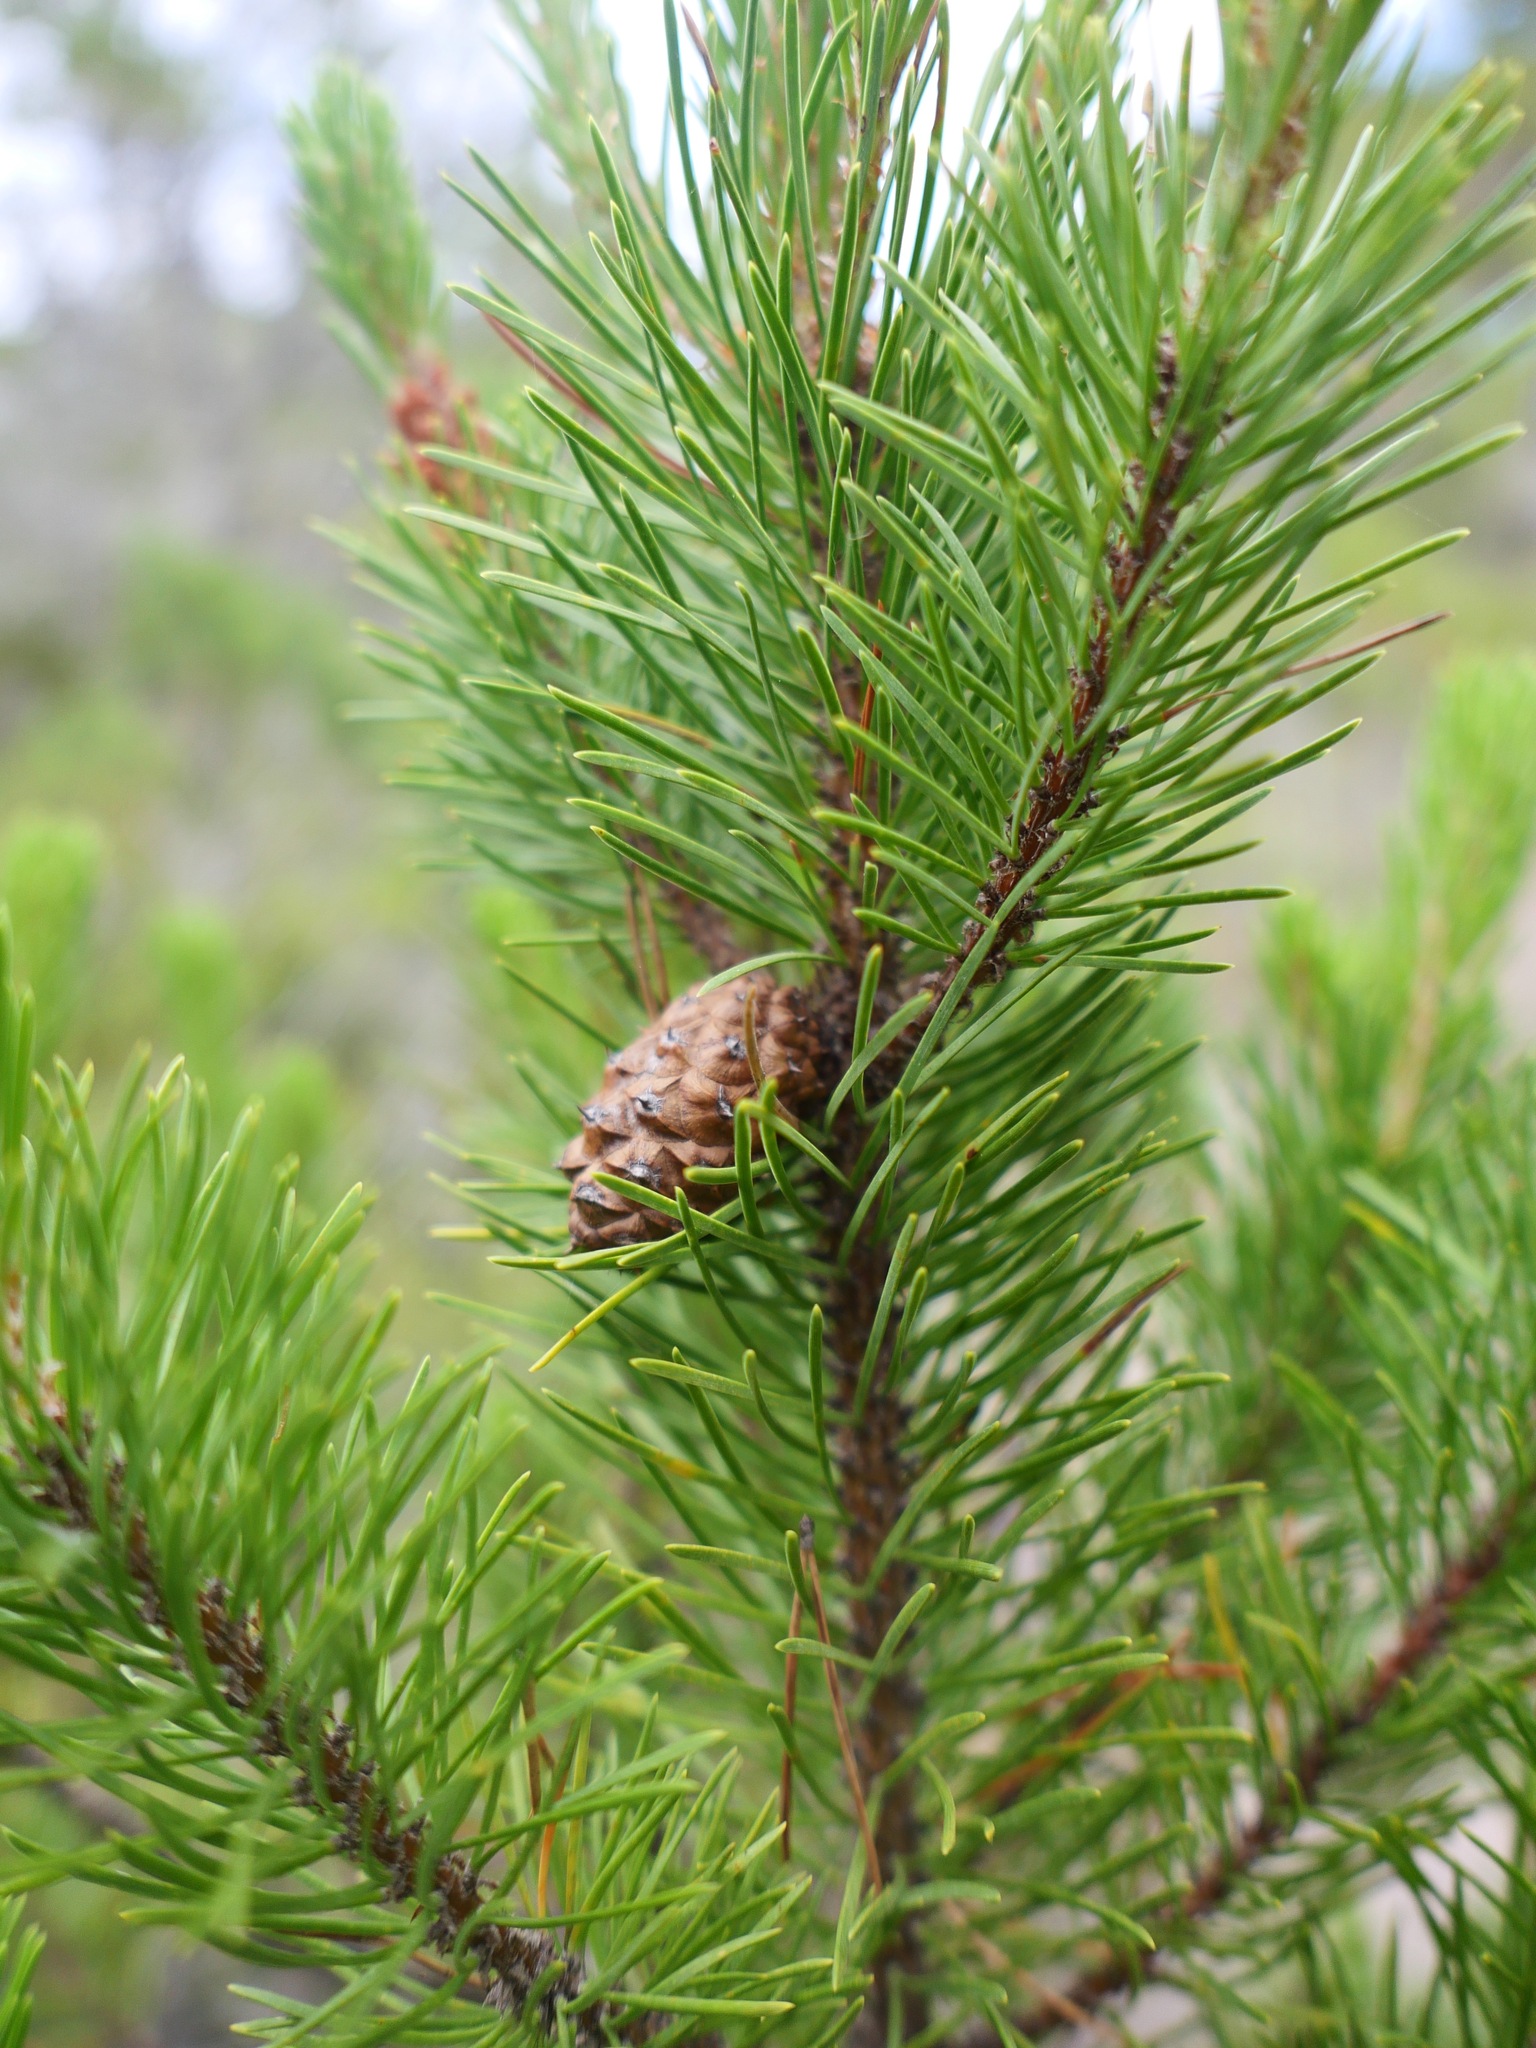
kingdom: Plantae
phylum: Tracheophyta
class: Pinopsida
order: Pinales
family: Pinaceae
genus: Pinus
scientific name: Pinus contorta
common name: Lodgepole pine
